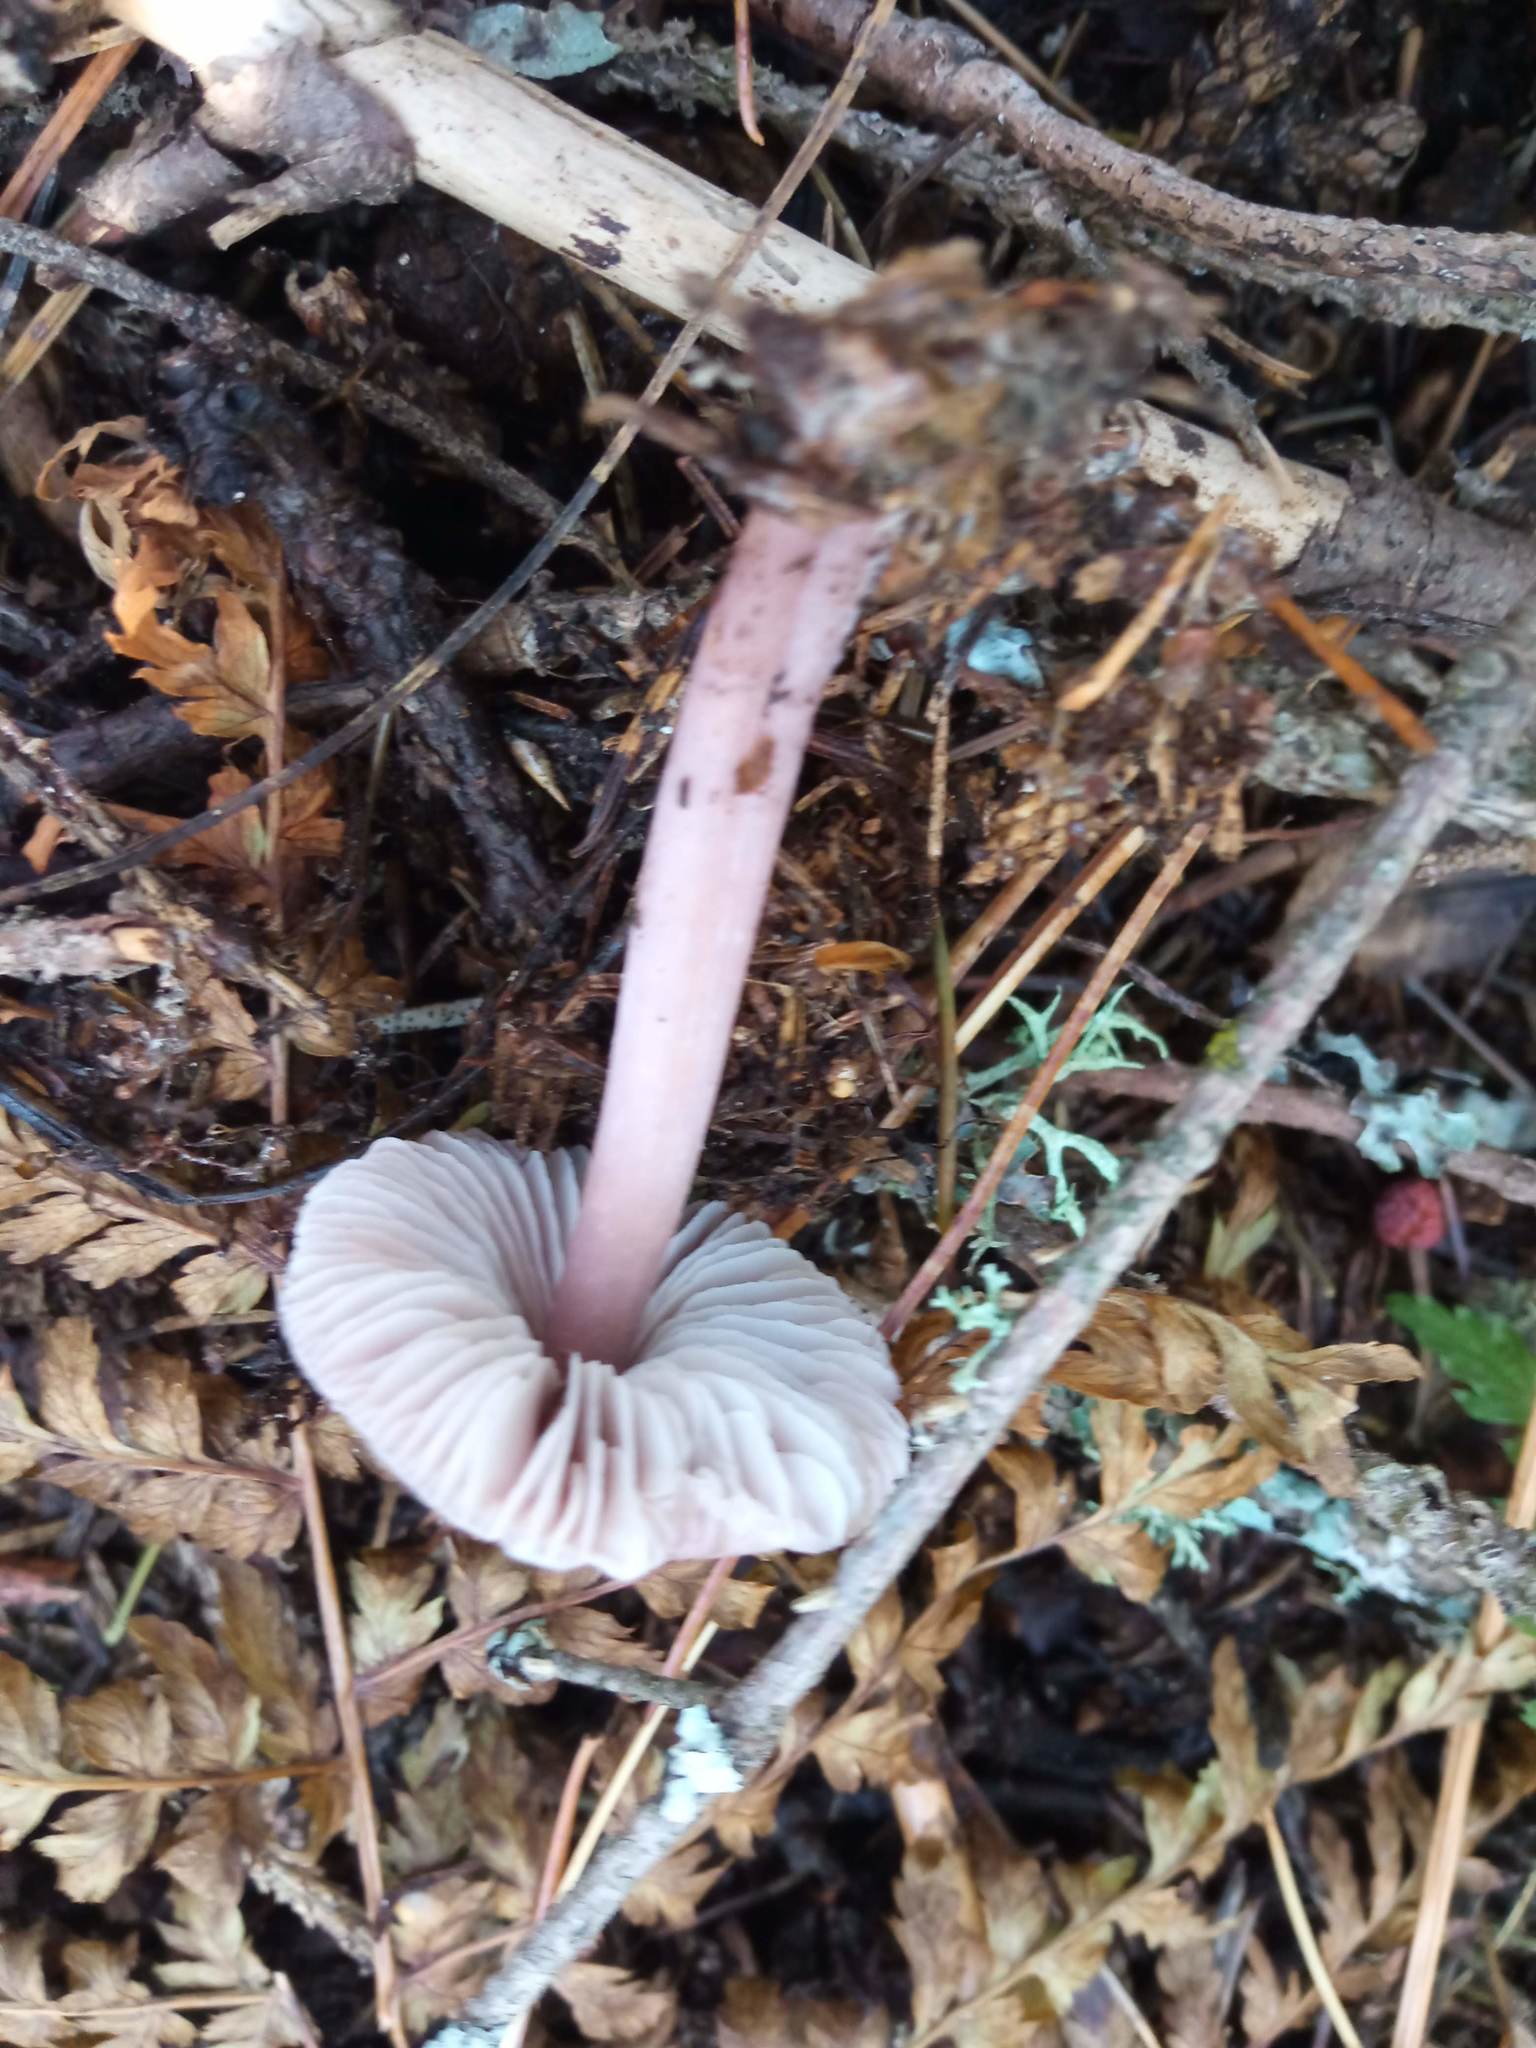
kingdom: Fungi
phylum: Basidiomycota
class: Agaricomycetes
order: Agaricales
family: Mycenaceae
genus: Mycena
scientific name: Mycena pura
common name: Lilac bonnet
